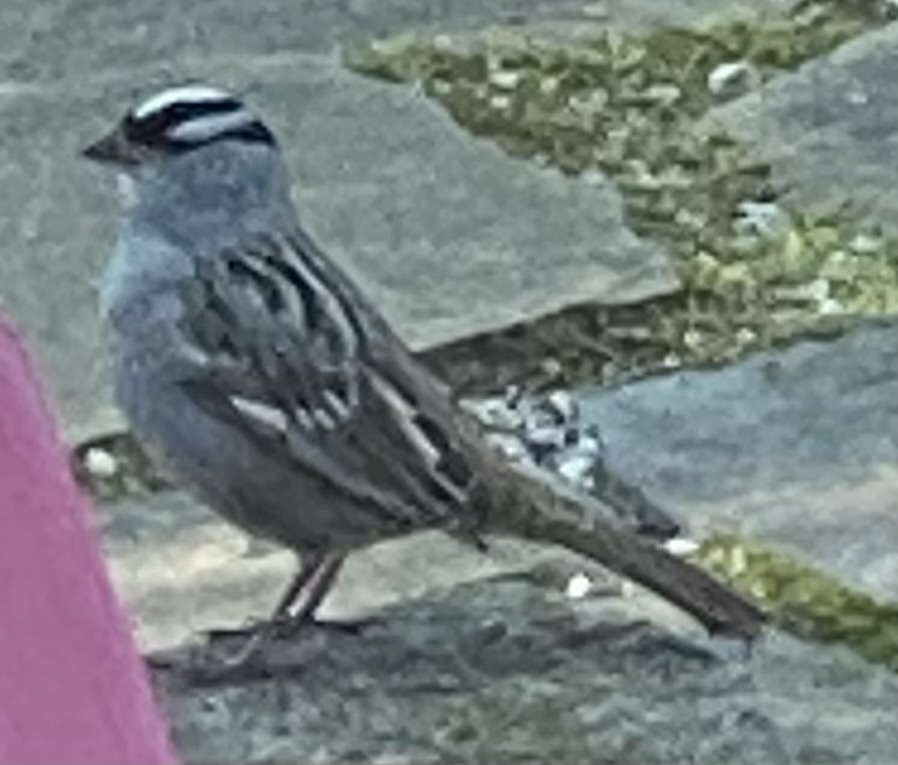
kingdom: Animalia
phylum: Chordata
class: Aves
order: Passeriformes
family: Passerellidae
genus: Zonotrichia
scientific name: Zonotrichia leucophrys
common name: White-crowned sparrow
